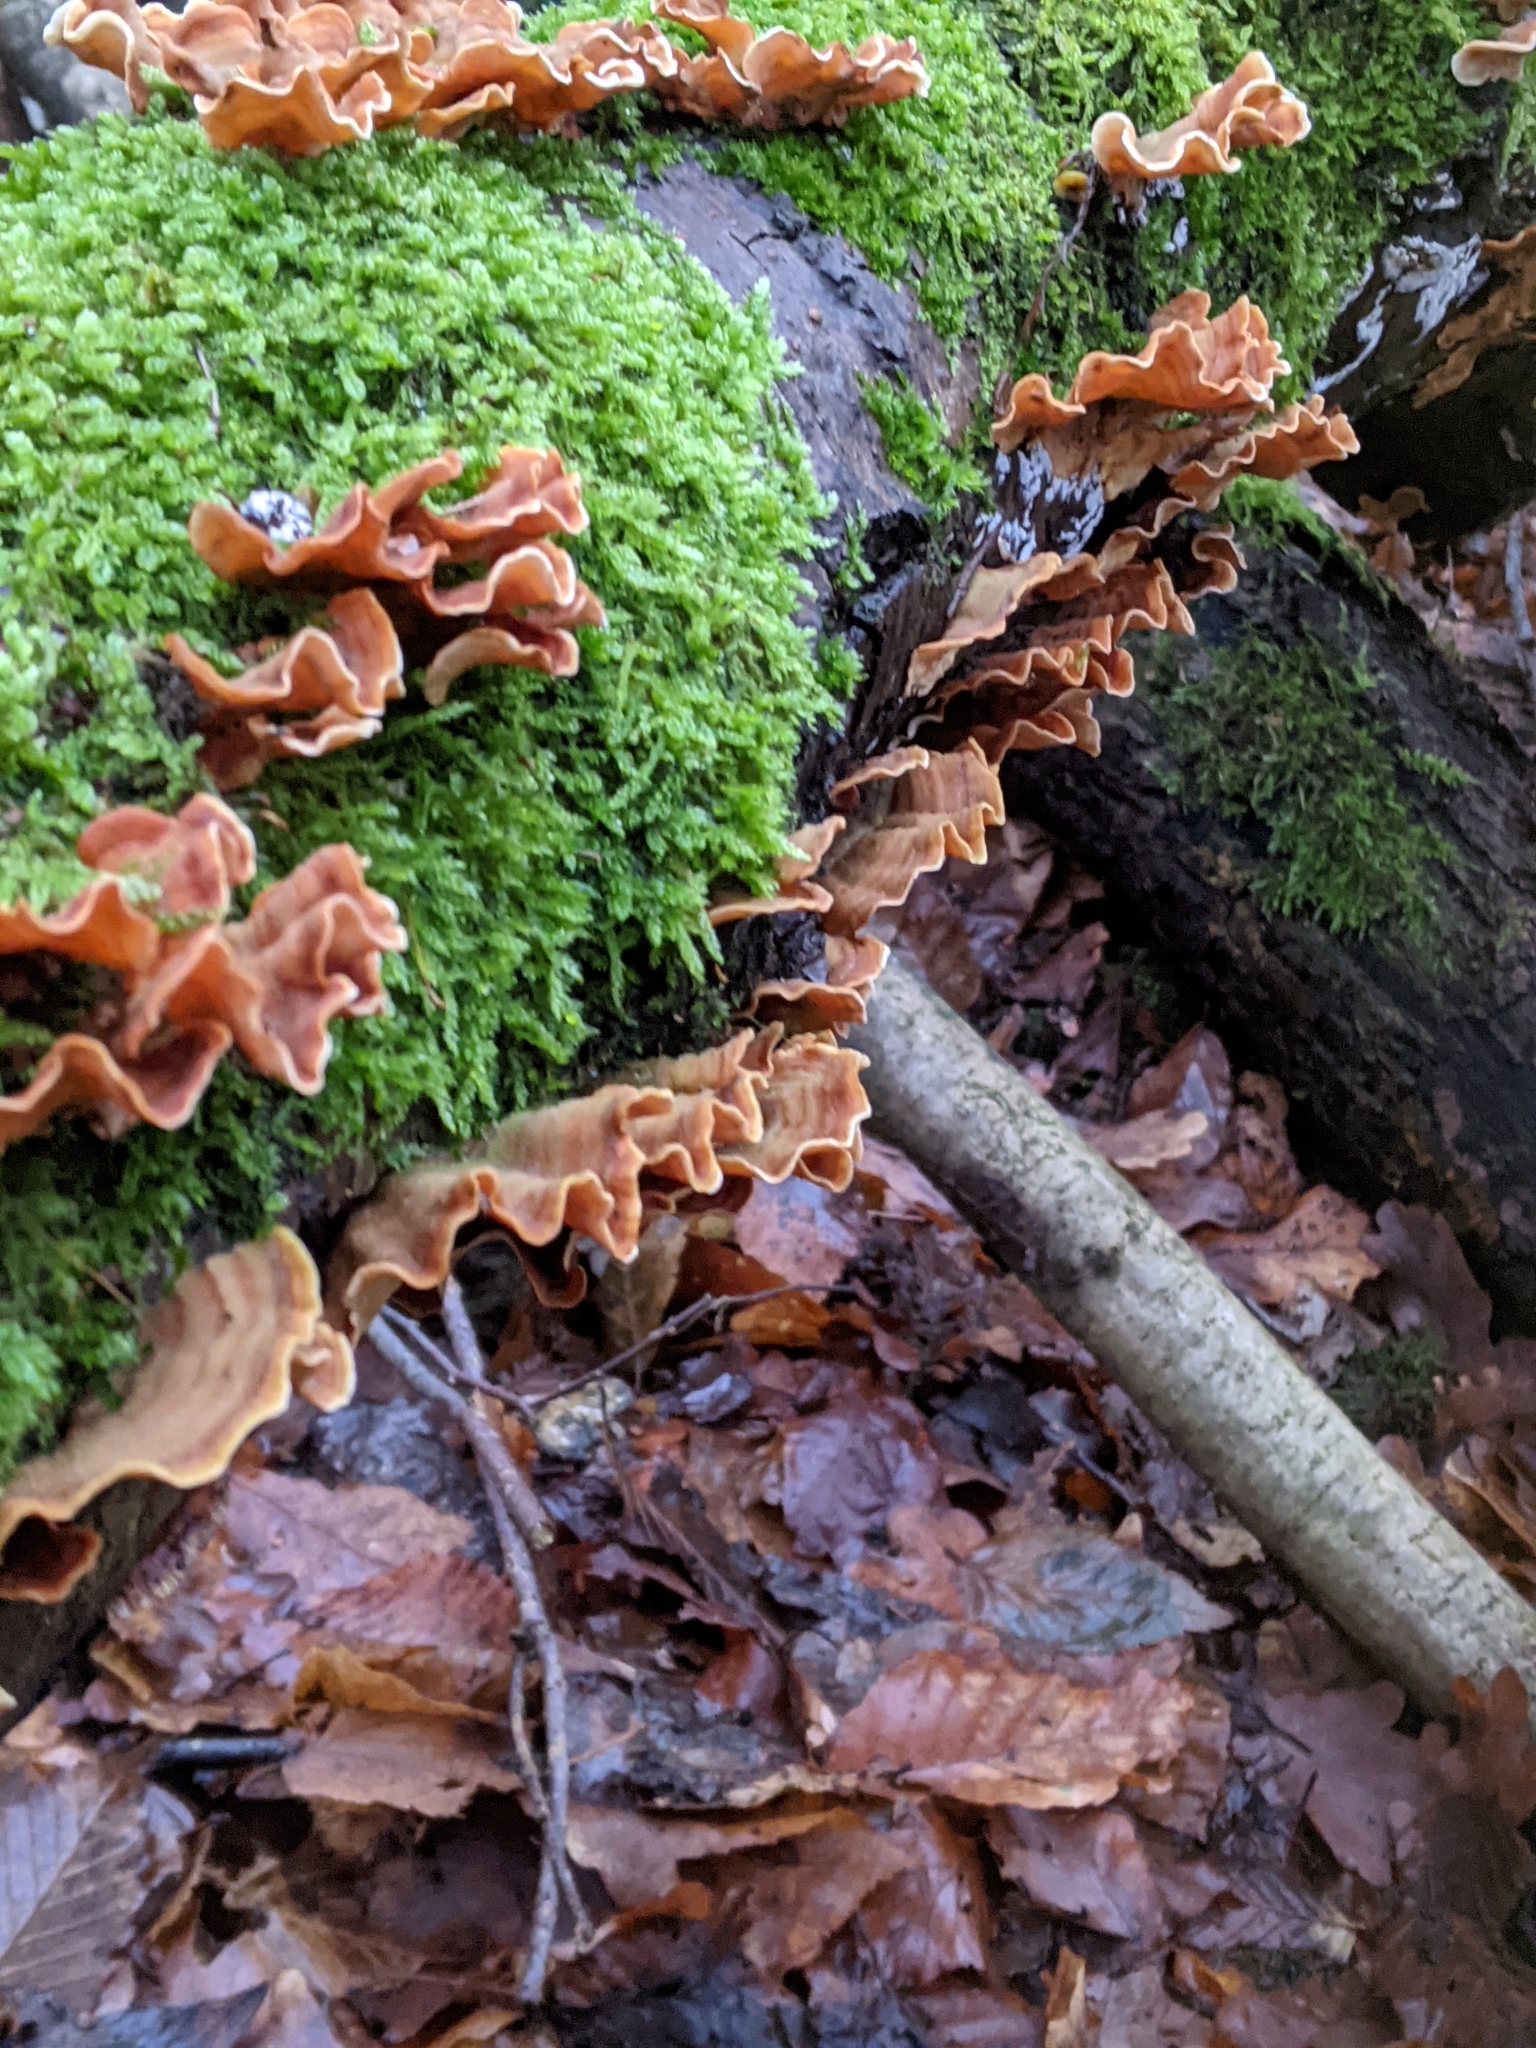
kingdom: Fungi
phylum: Basidiomycota
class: Agaricomycetes
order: Russulales
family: Stereaceae
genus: Stereum
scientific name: Stereum hirsutum
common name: Hairy curtain crust
